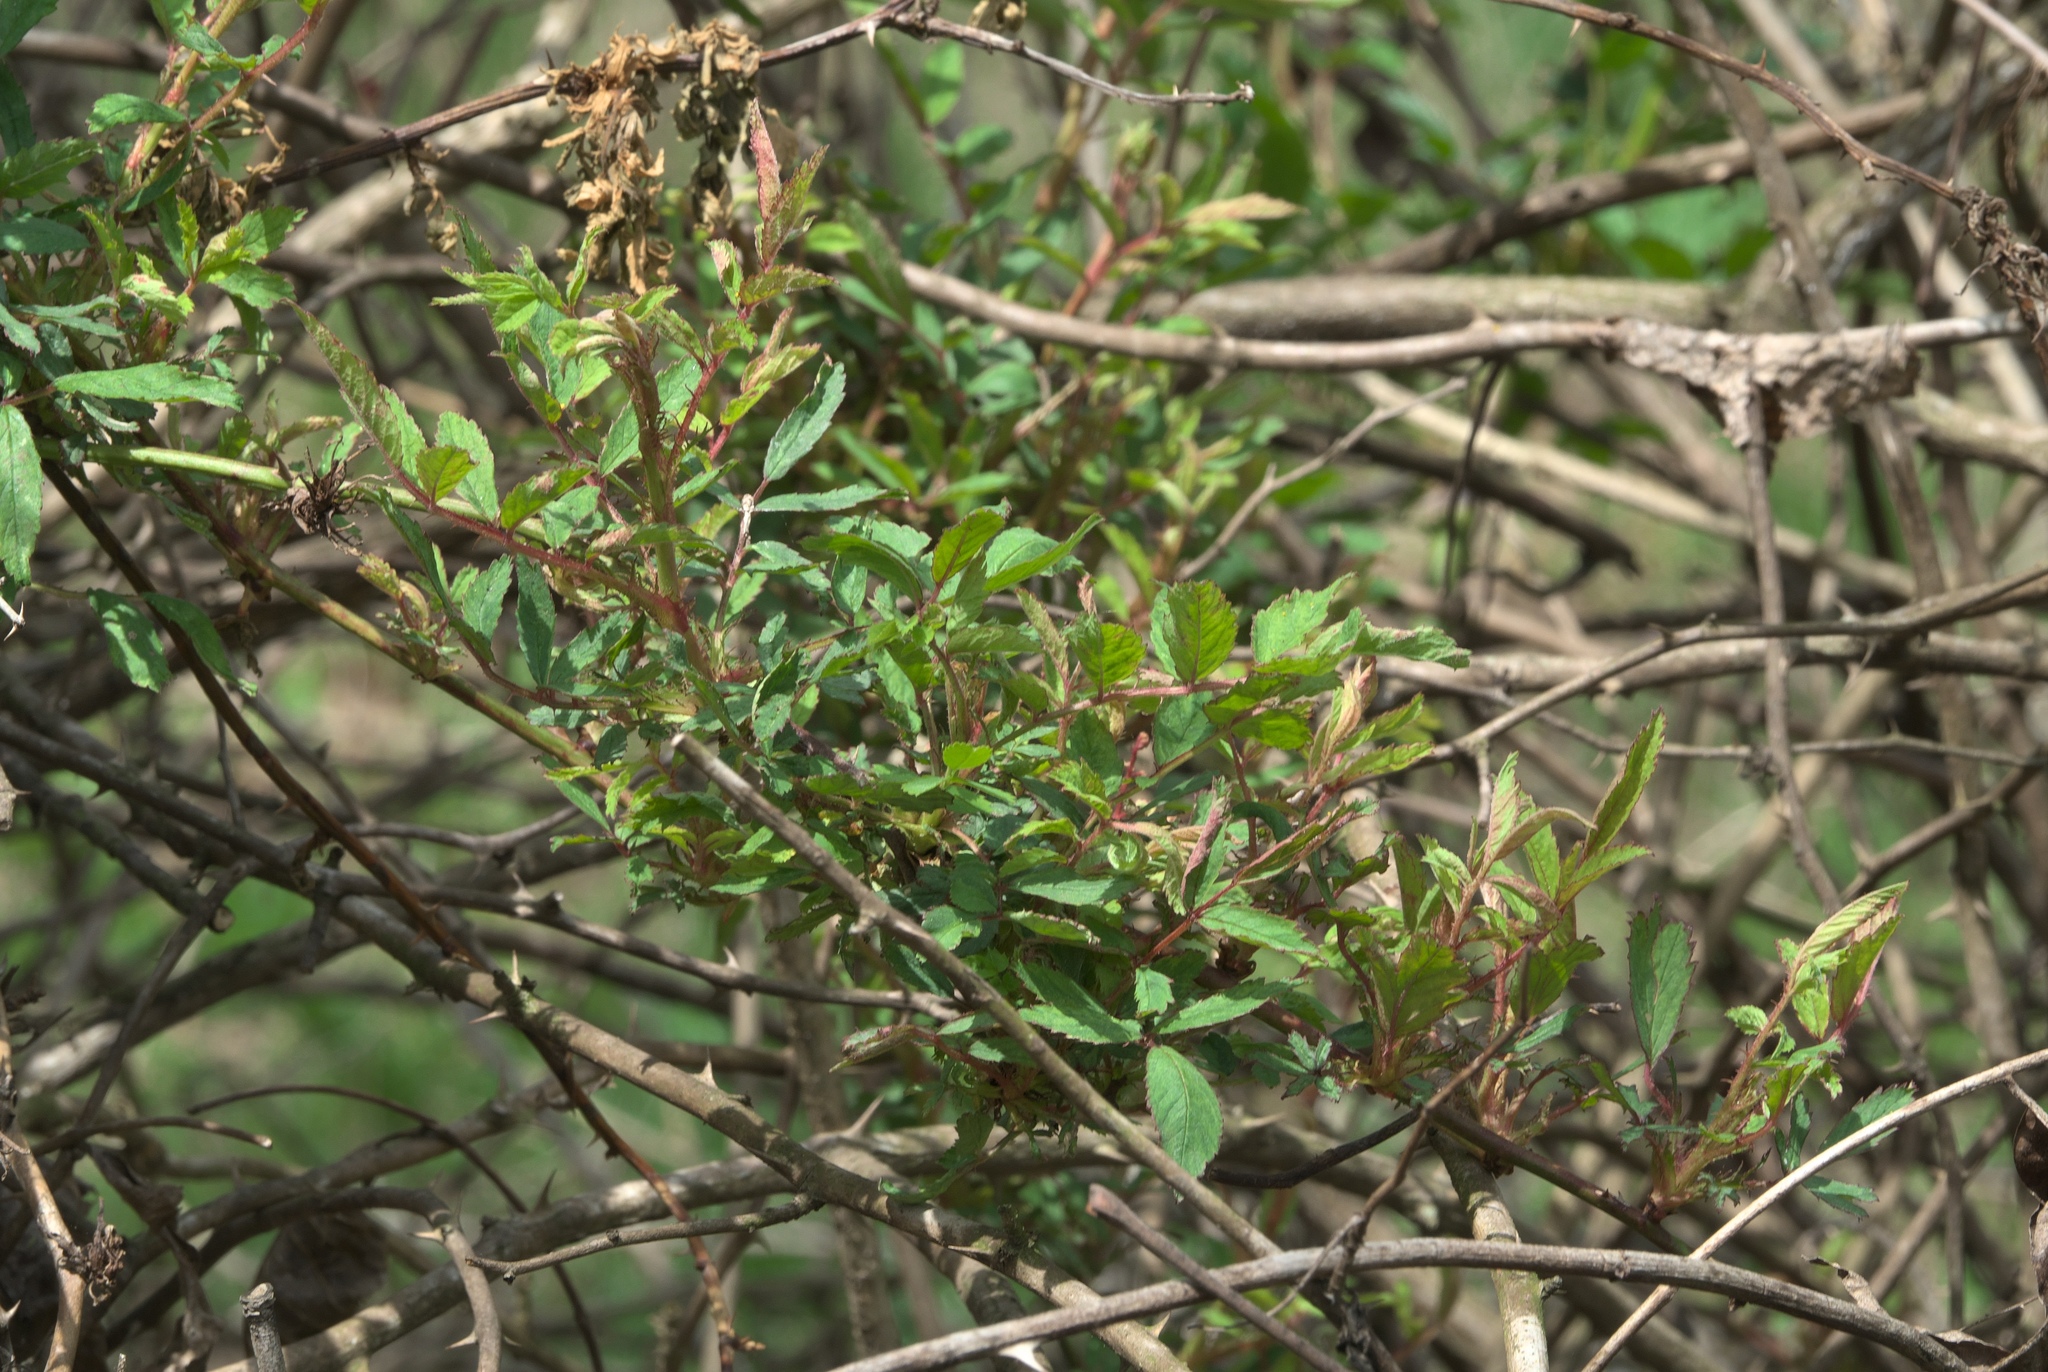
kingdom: Plantae
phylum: Tracheophyta
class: Magnoliopsida
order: Rosales
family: Rosaceae
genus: Rosa
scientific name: Rosa multiflora
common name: Multiflora rose
